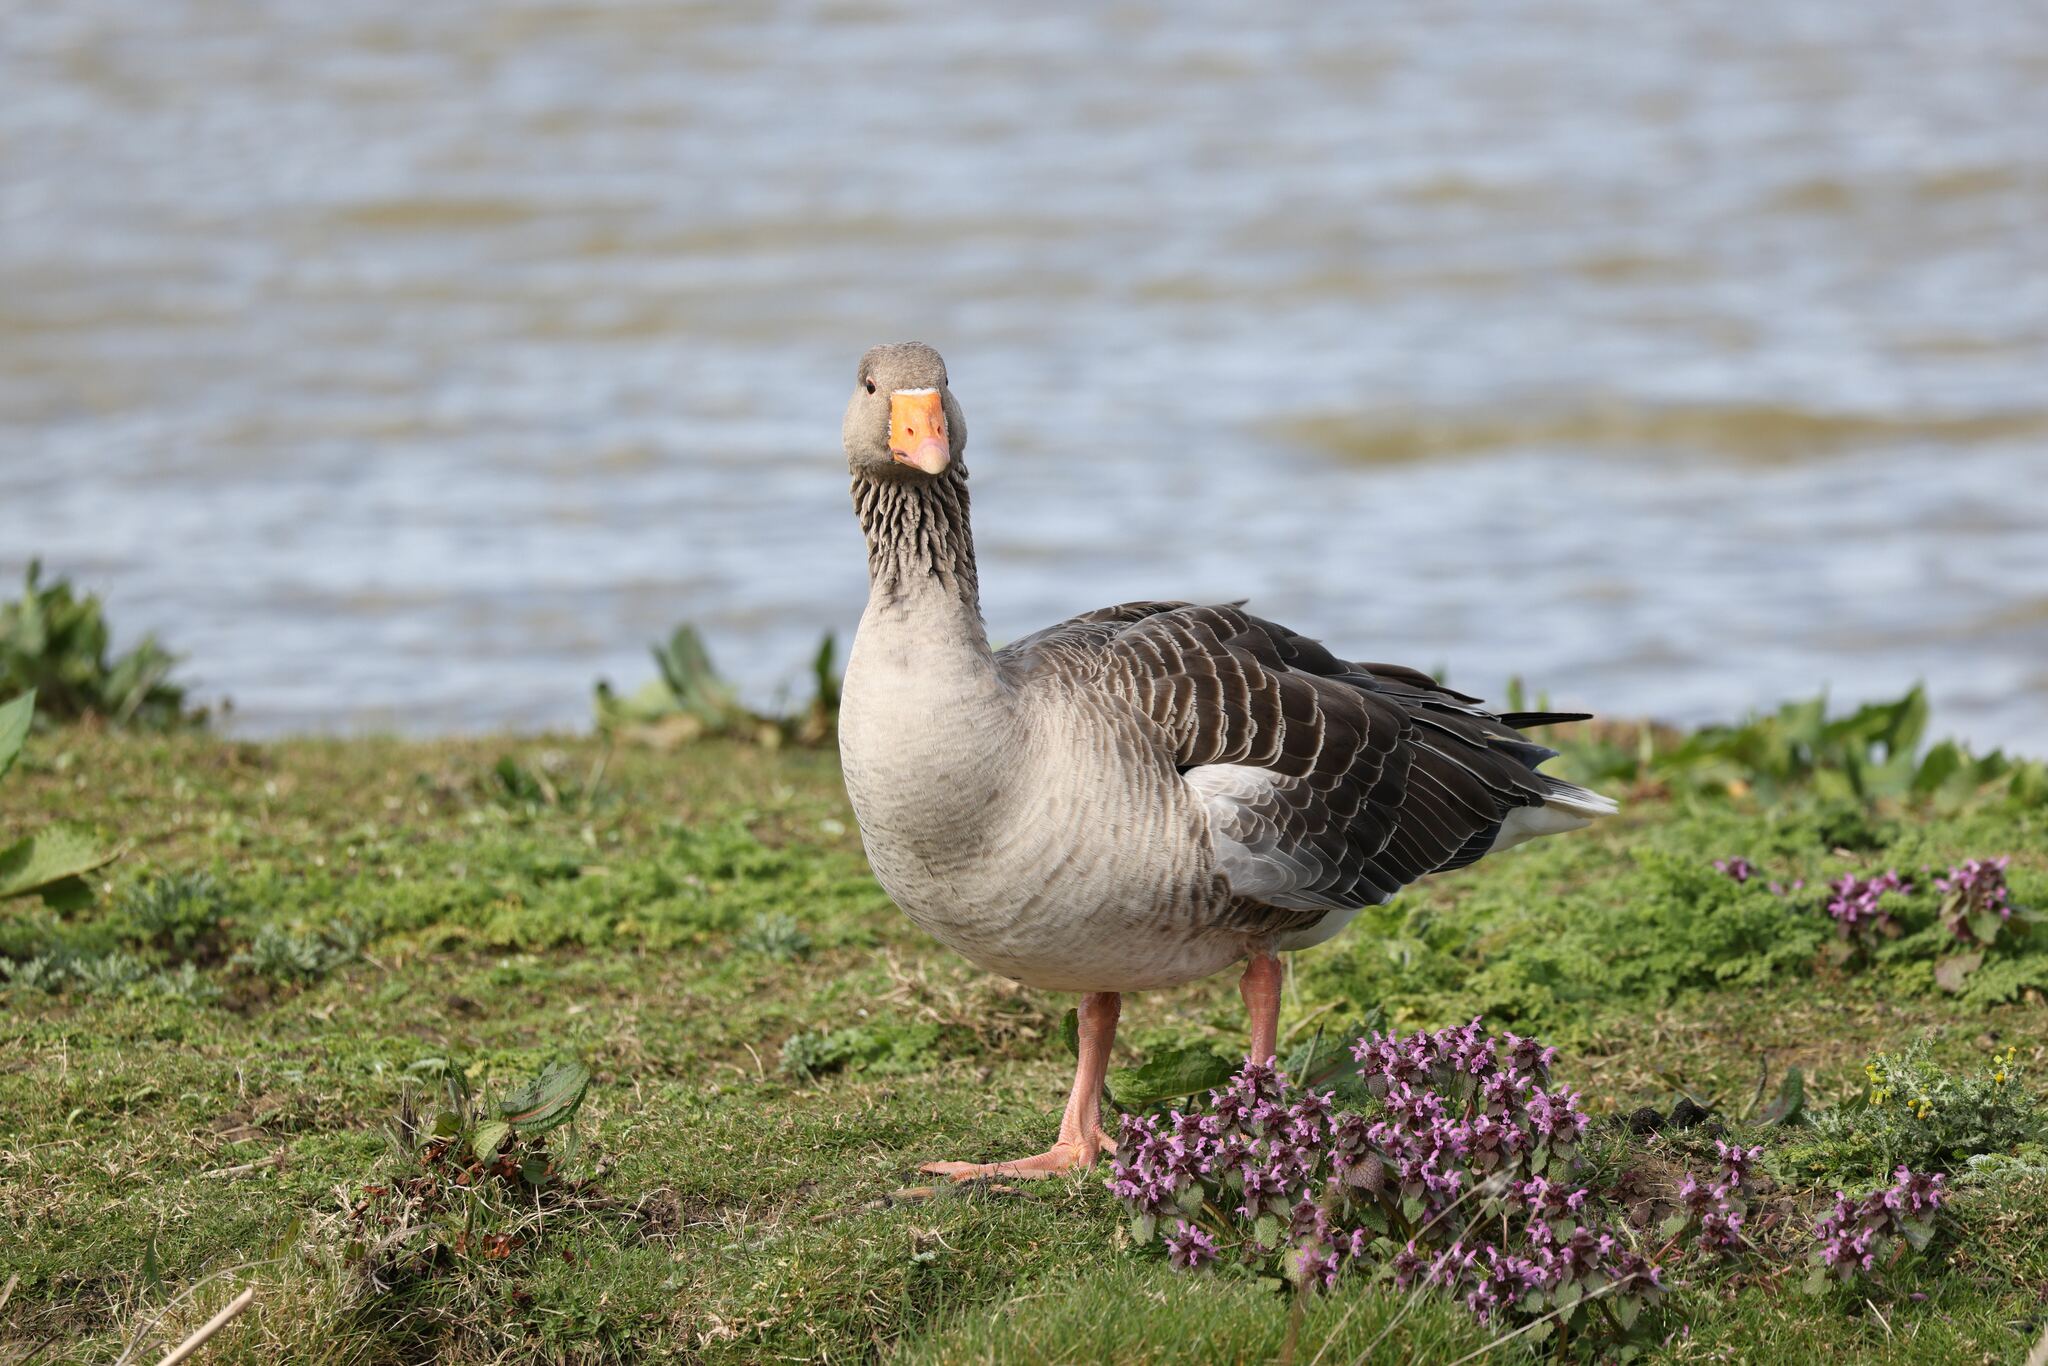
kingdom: Animalia
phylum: Chordata
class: Aves
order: Anseriformes
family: Anatidae
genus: Anser
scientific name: Anser anser
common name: Greylag goose
